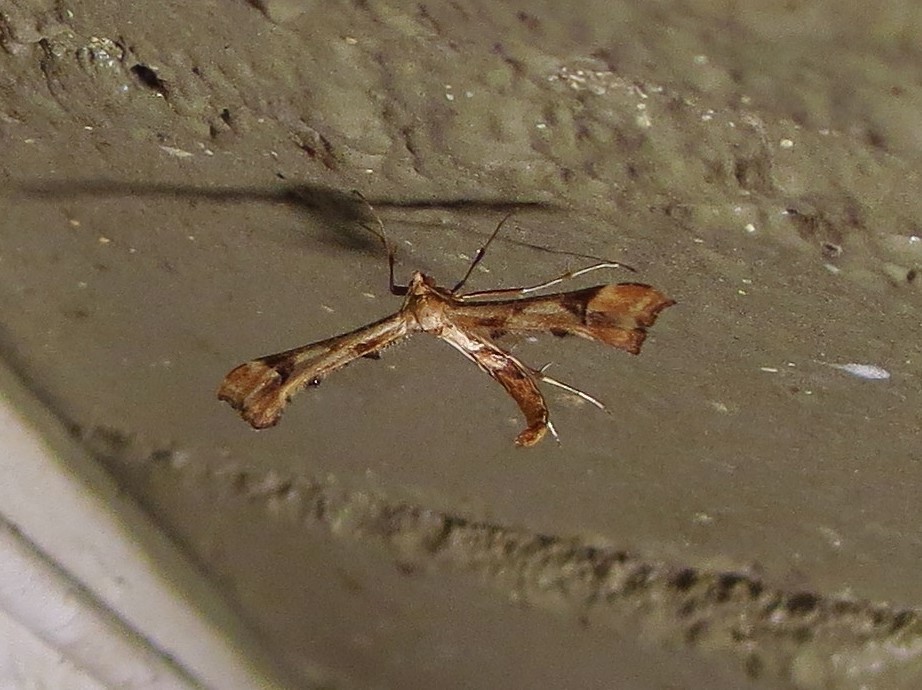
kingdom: Animalia
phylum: Arthropoda
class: Insecta
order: Lepidoptera
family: Pterophoridae
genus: Platyptilia
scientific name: Platyptilia carduidactylus
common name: Artichoke plume moth
